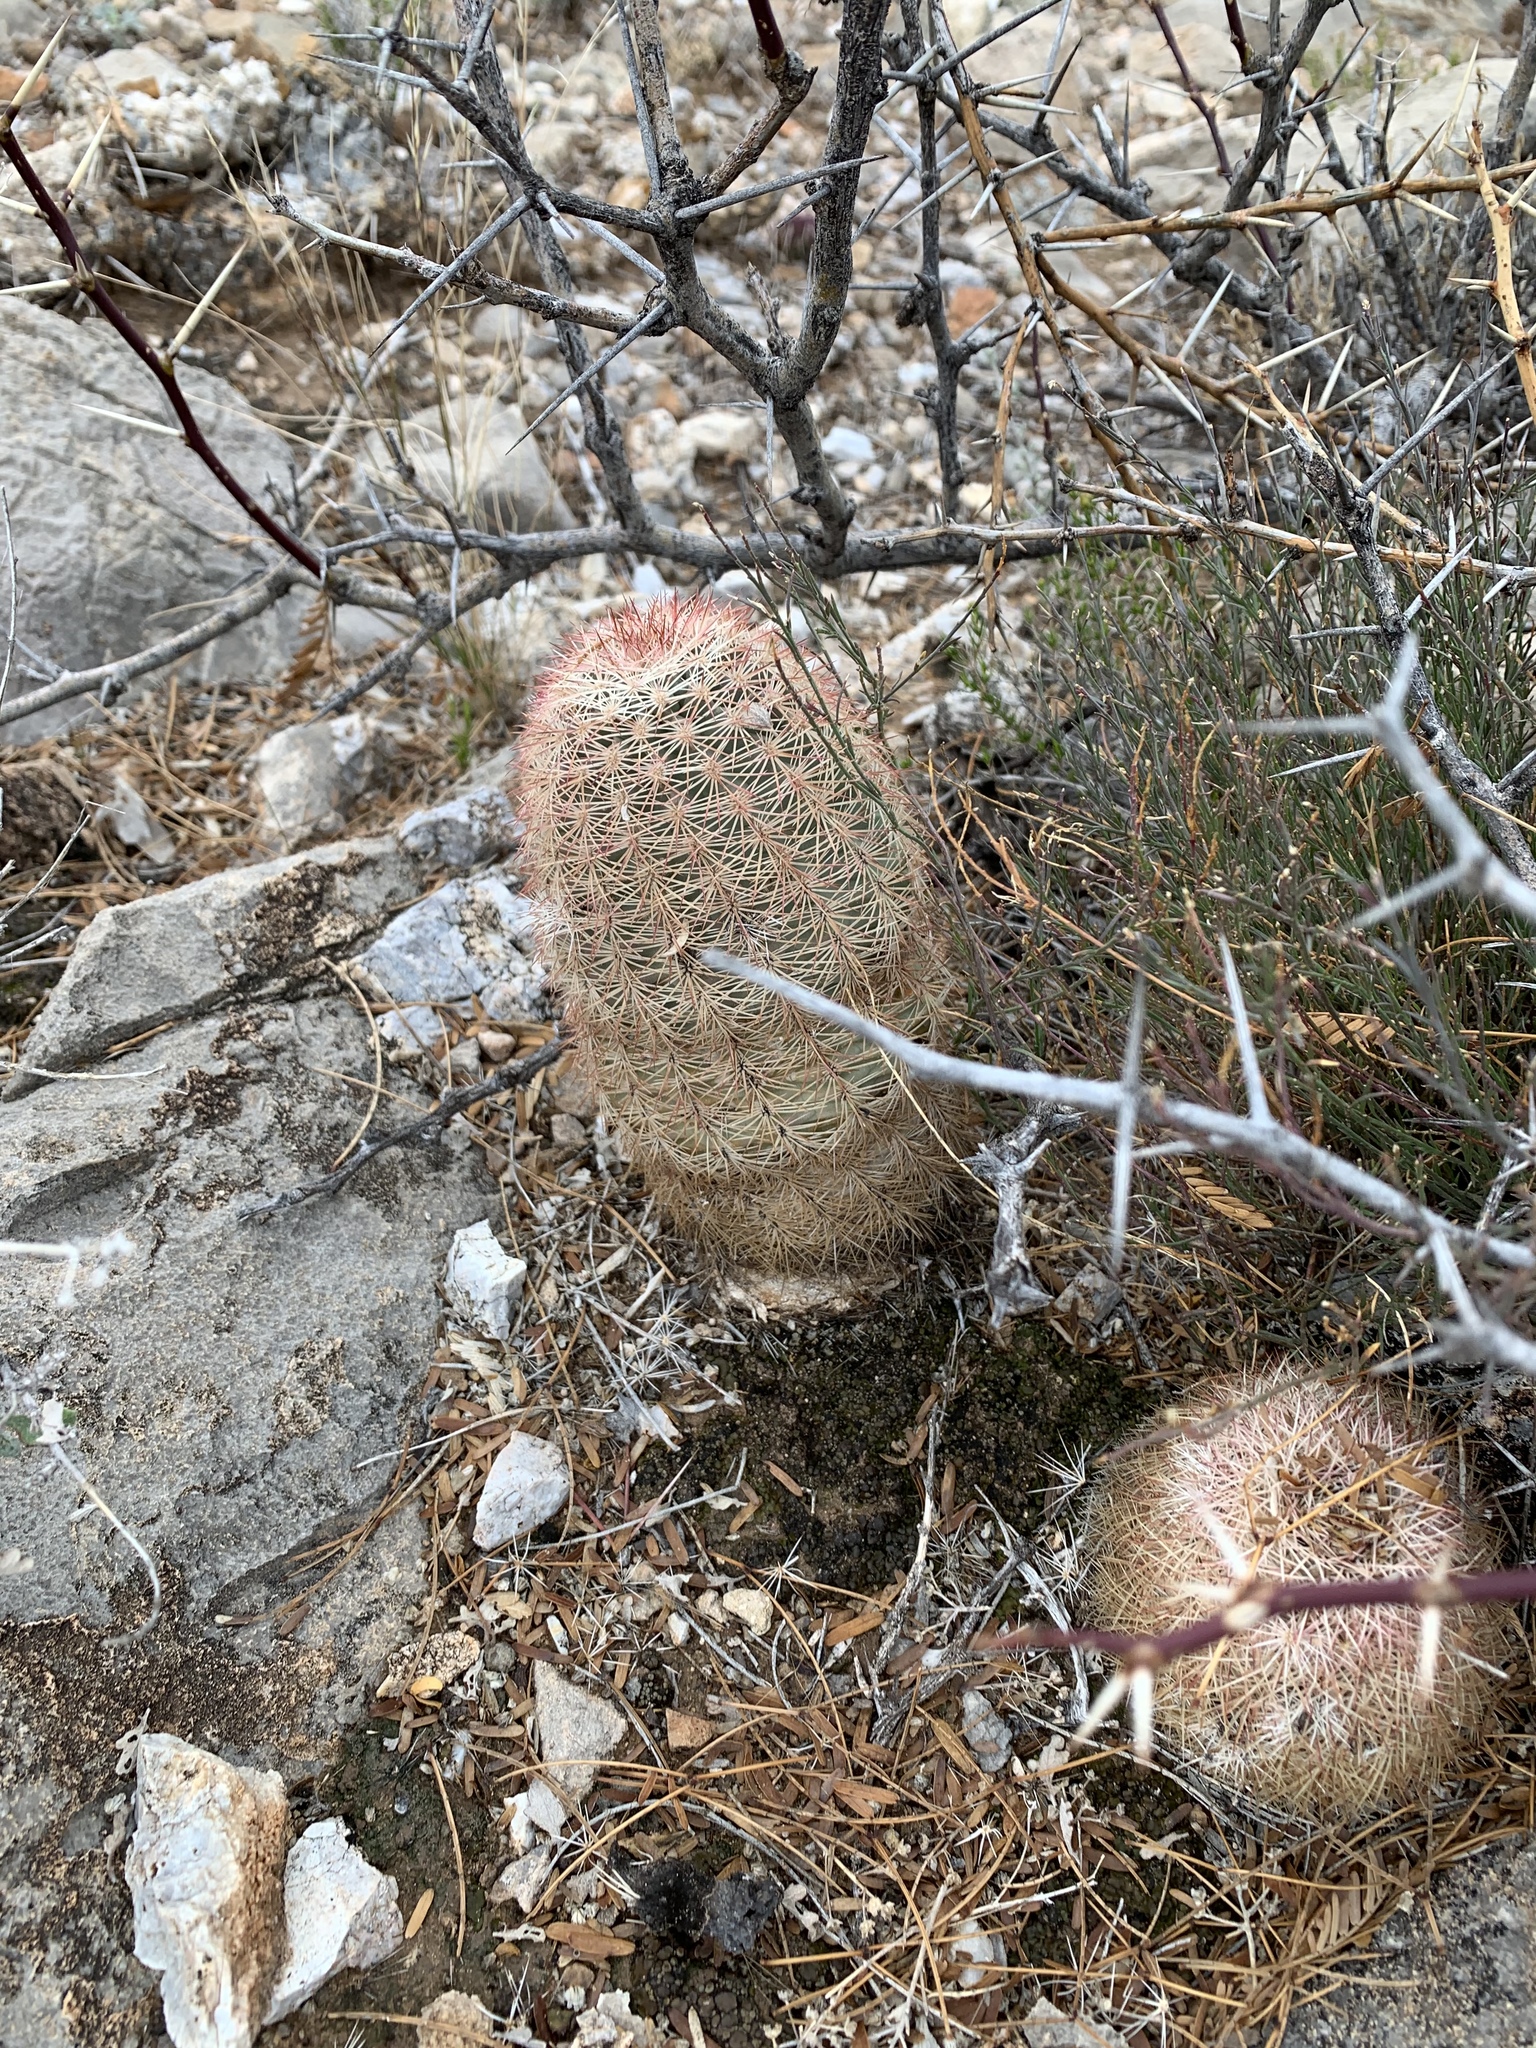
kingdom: Plantae
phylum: Tracheophyta
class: Magnoliopsida
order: Caryophyllales
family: Cactaceae
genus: Echinocereus
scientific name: Echinocereus dasyacanthus
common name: Spiny hedgehog cactus
